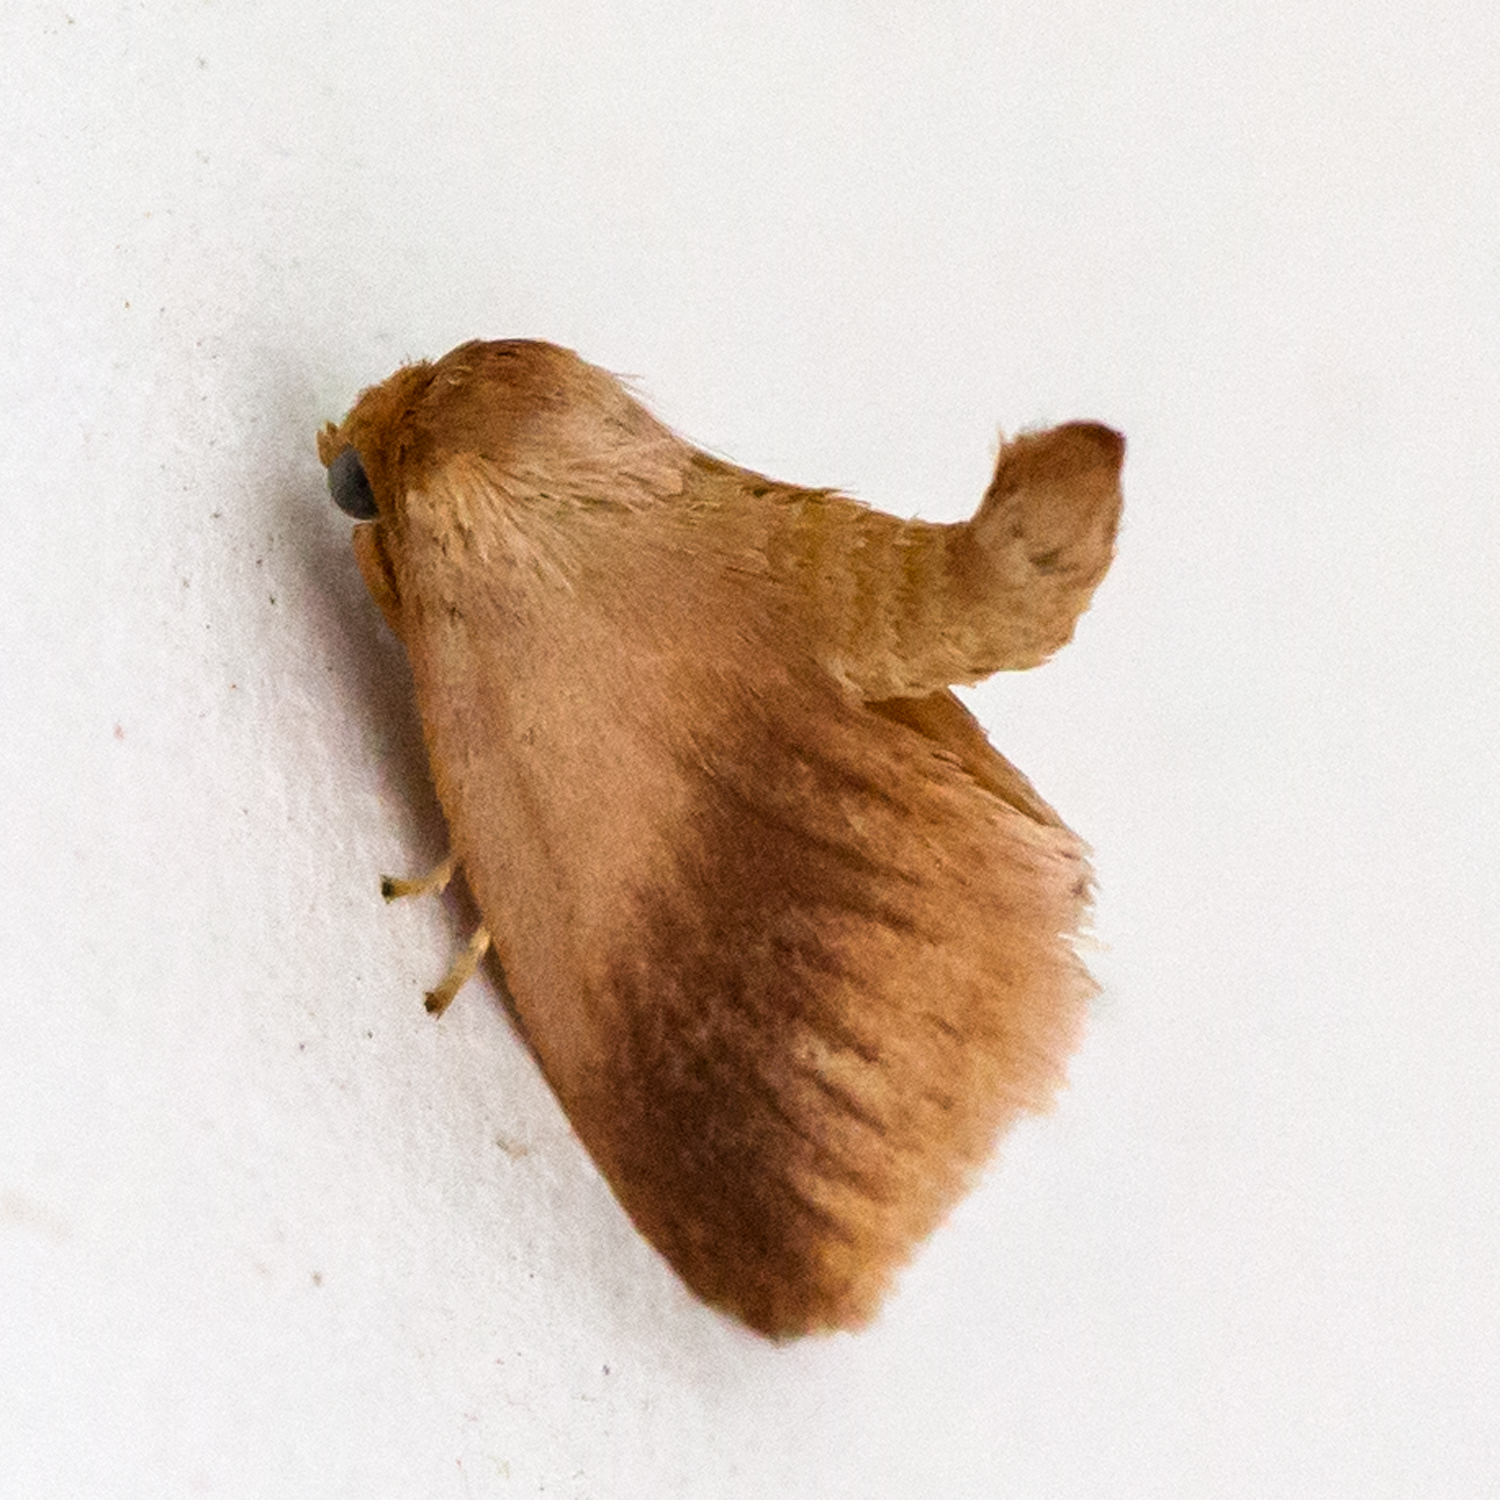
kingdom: Animalia
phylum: Arthropoda
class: Insecta
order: Lepidoptera
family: Limacodidae
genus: Tortricidia
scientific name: Tortricidia testacea
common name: Early button slug moth
